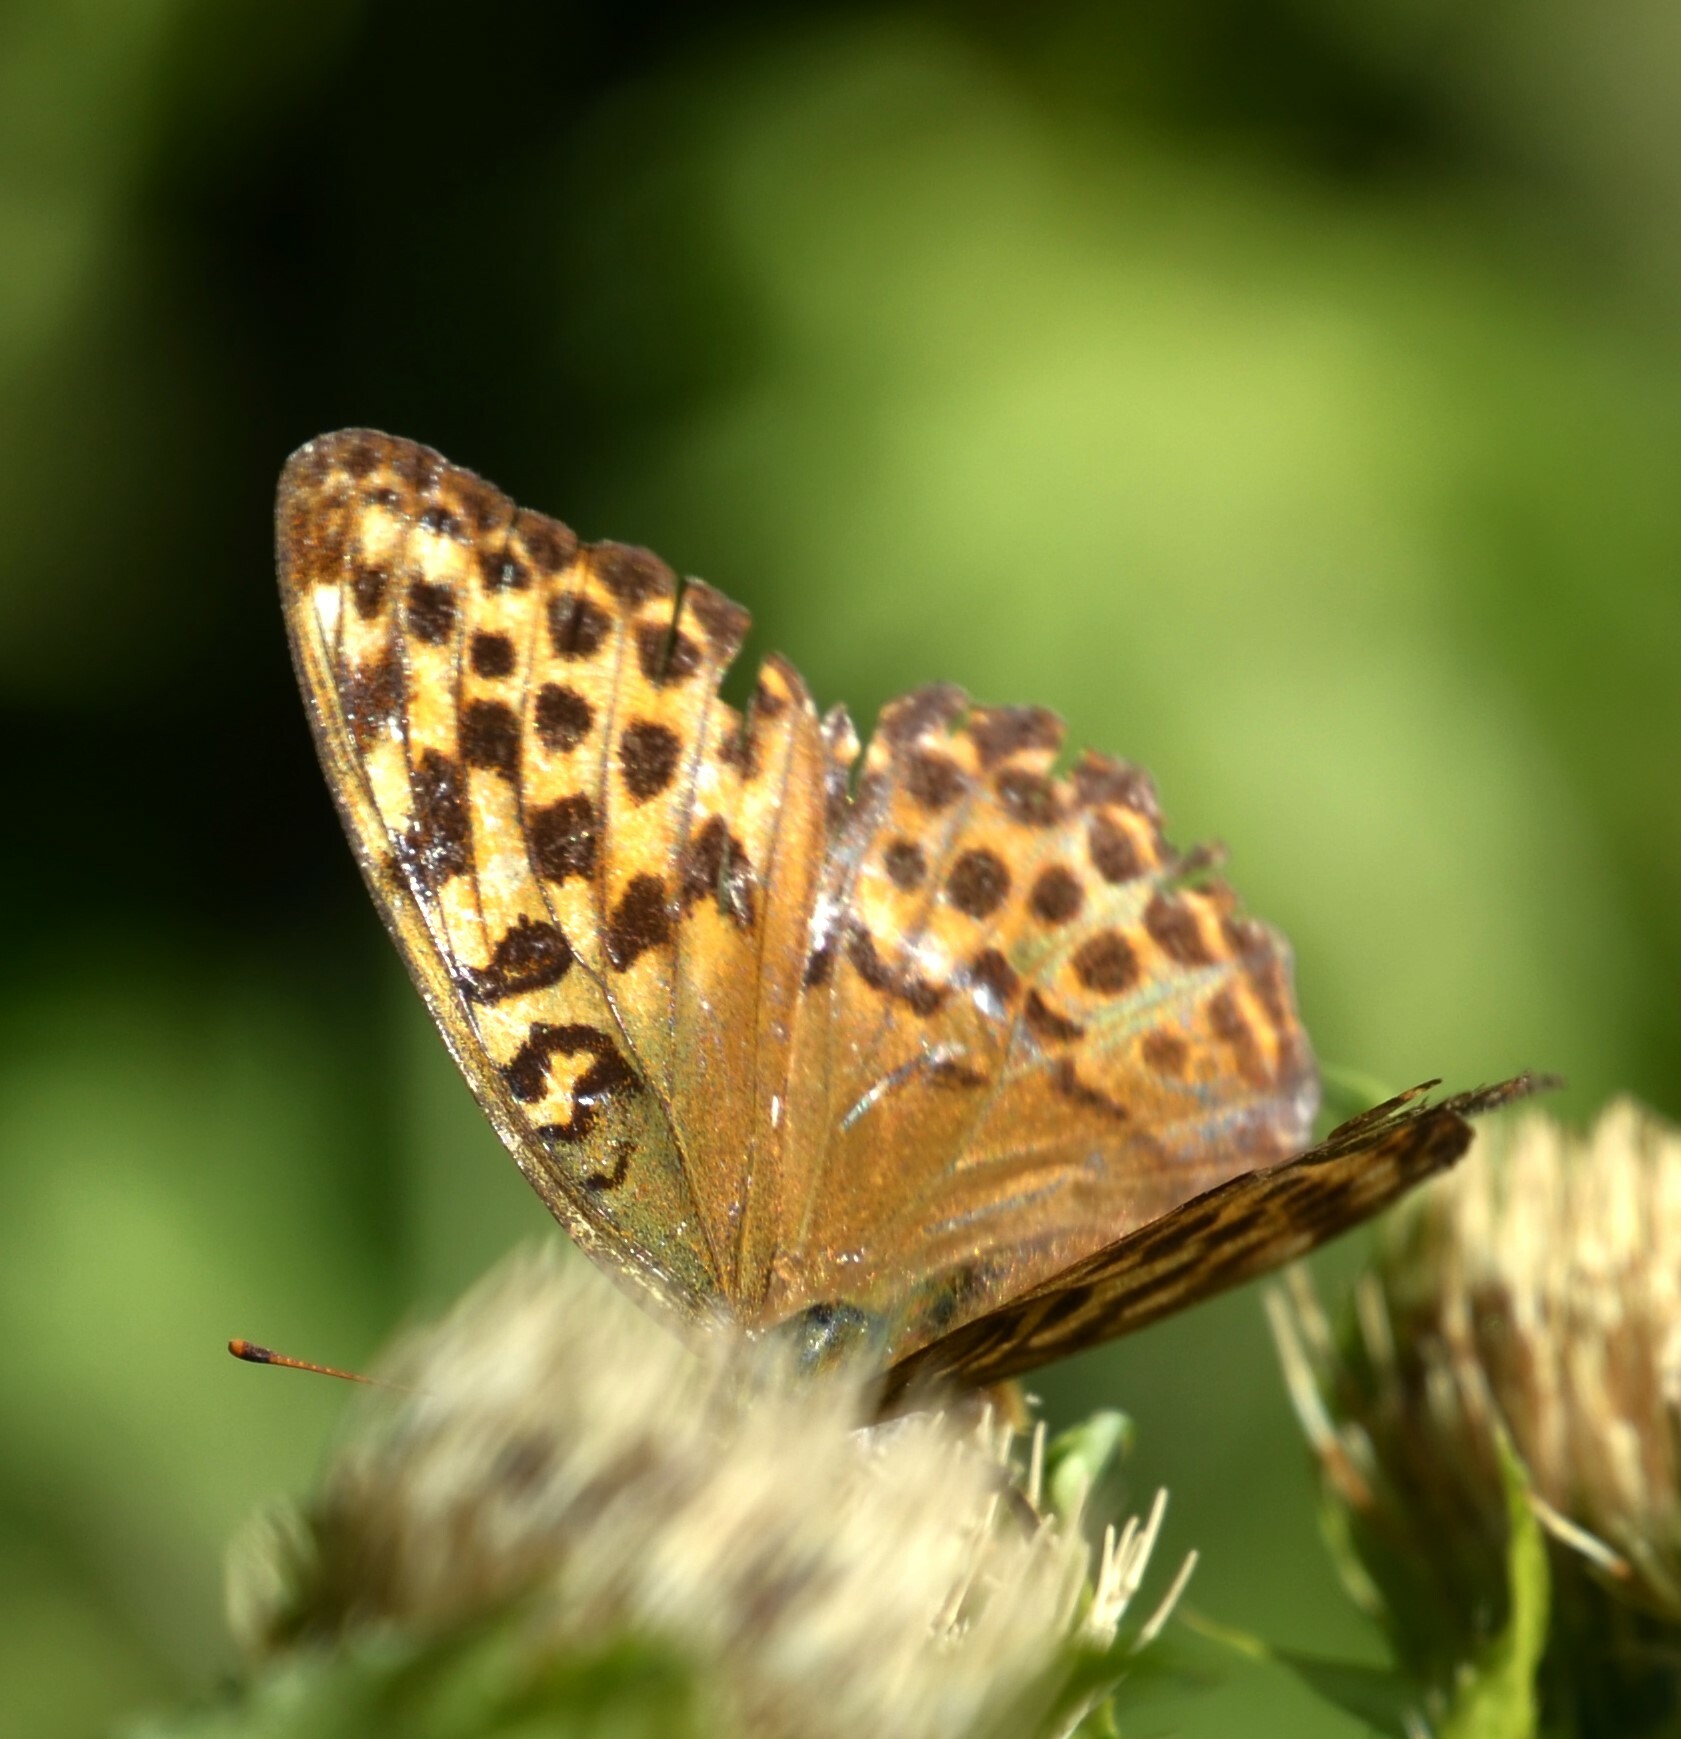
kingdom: Animalia
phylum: Arthropoda
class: Insecta
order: Lepidoptera
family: Nymphalidae
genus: Argynnis
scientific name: Argynnis paphia
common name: Silver-washed fritillary
